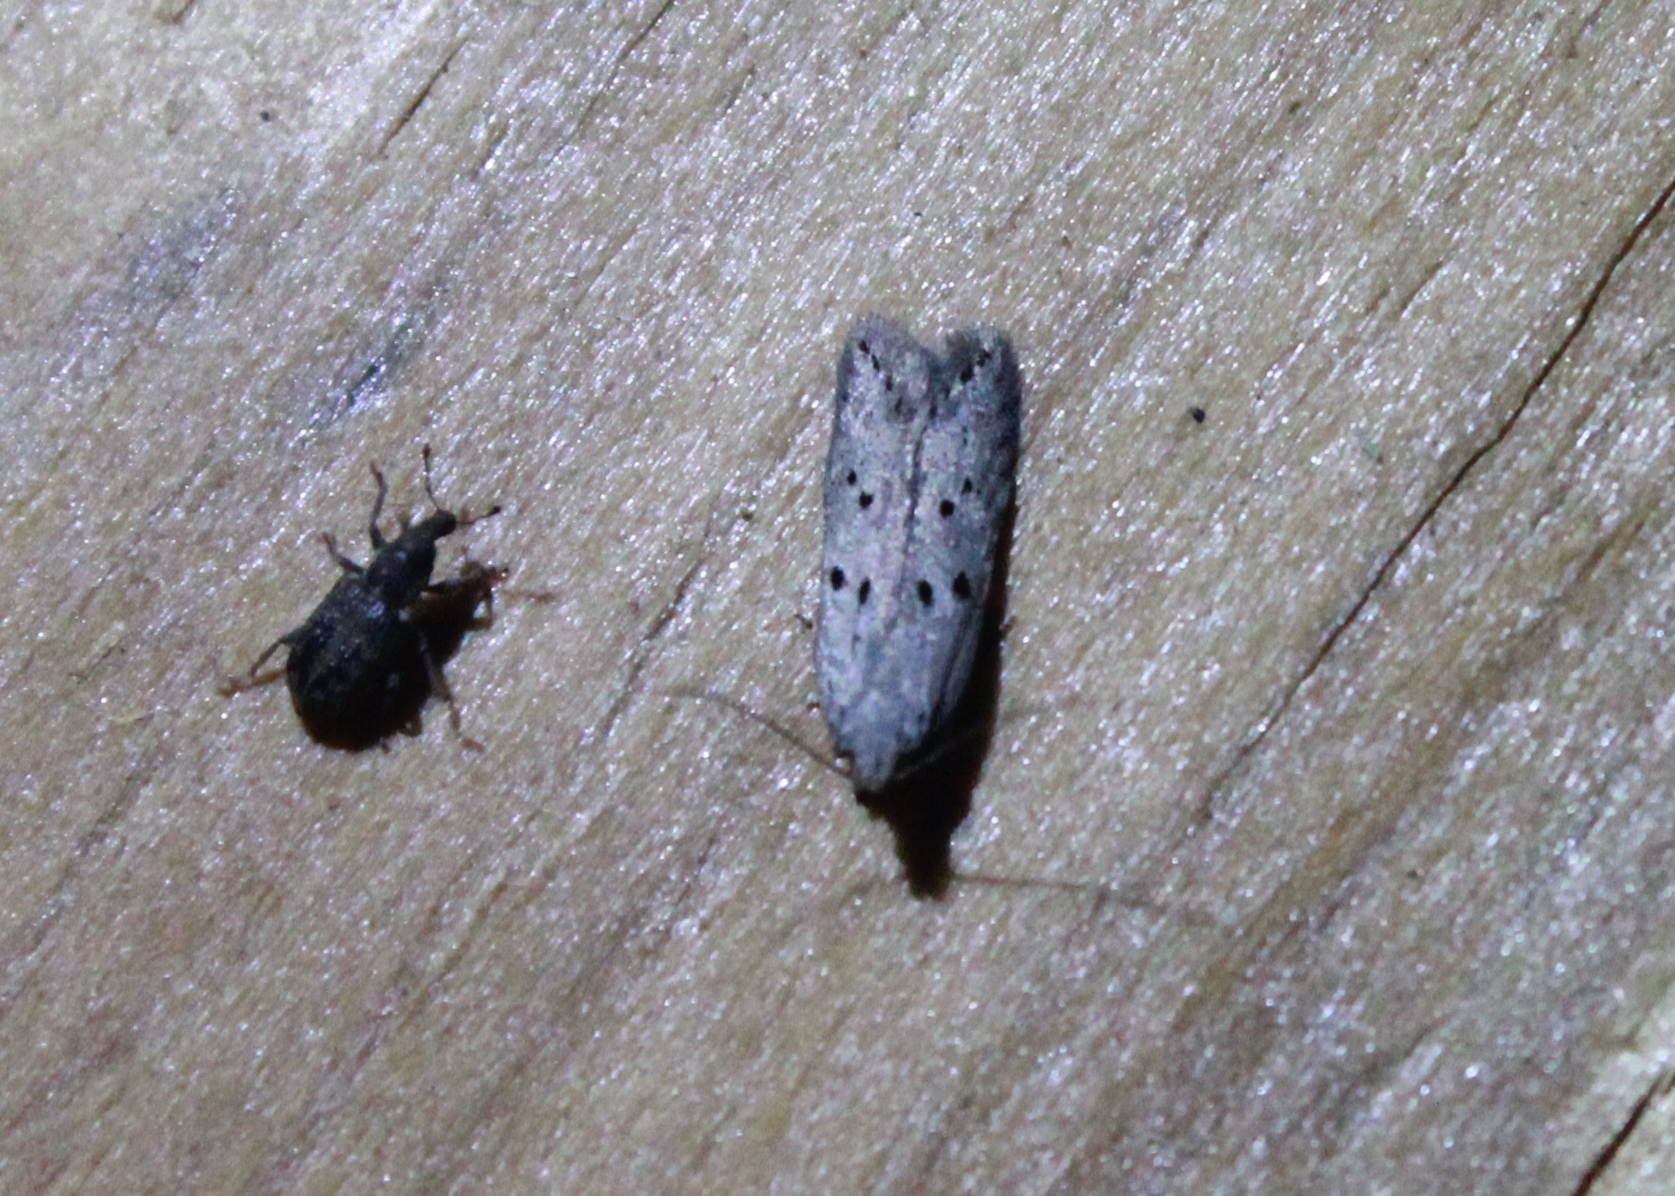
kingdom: Animalia
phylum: Arthropoda
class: Insecta
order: Lepidoptera
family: Gelechiidae
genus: Athrips
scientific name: Athrips mouffetella
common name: Dotted grey groundling
